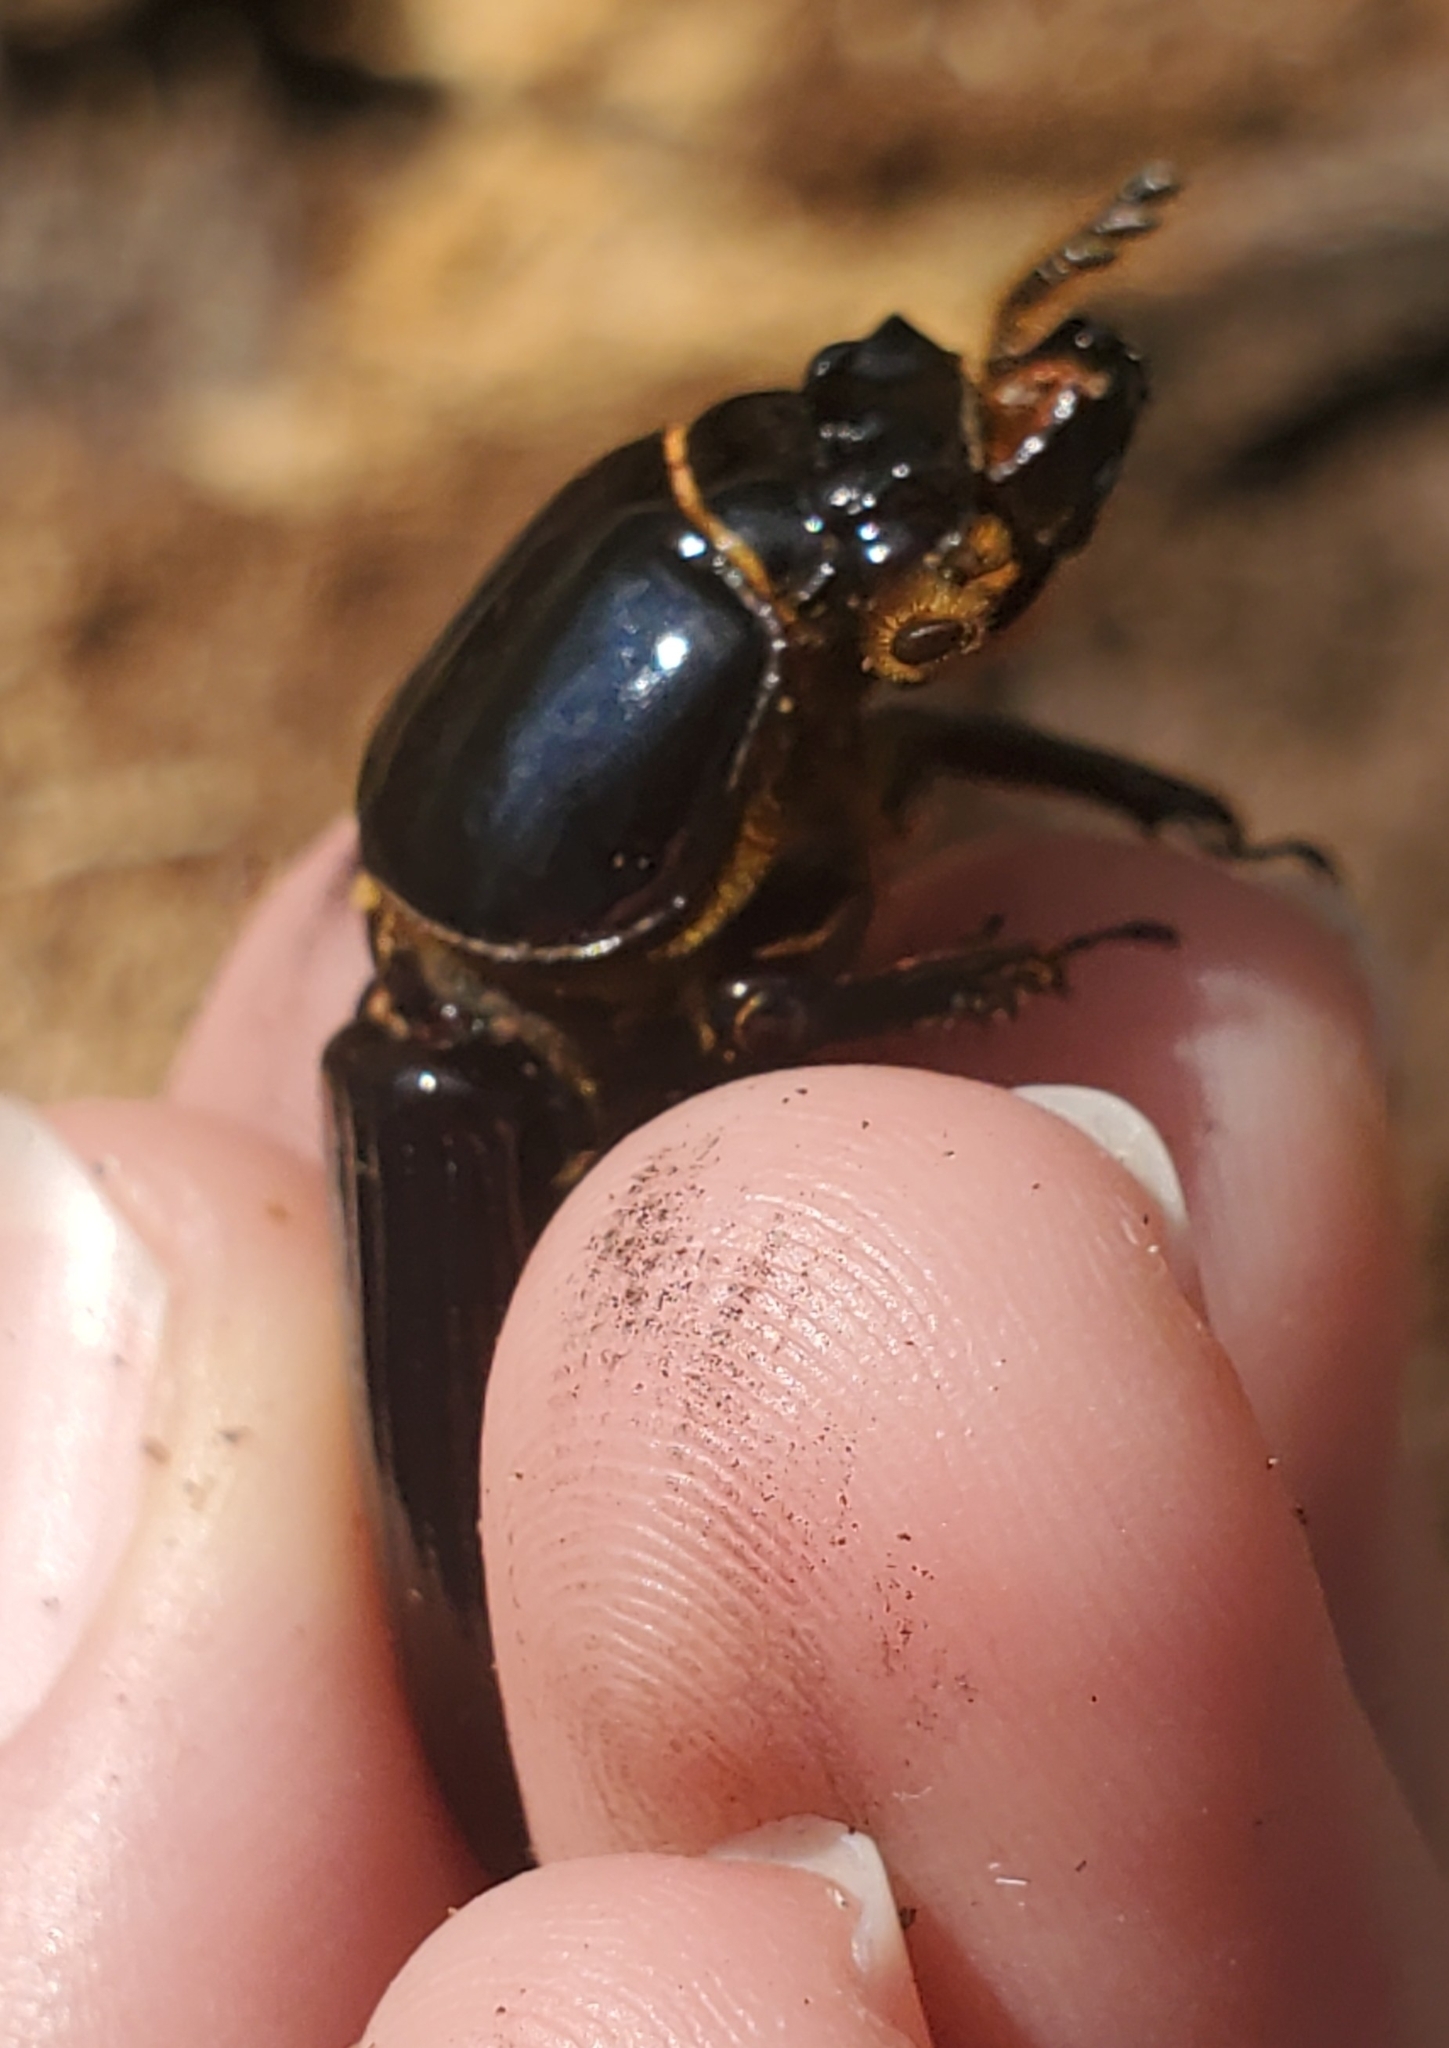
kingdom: Animalia
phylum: Arthropoda
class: Insecta
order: Coleoptera
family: Passalidae
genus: Odontotaenius
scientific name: Odontotaenius disjunctus
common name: Patent leather beetle
